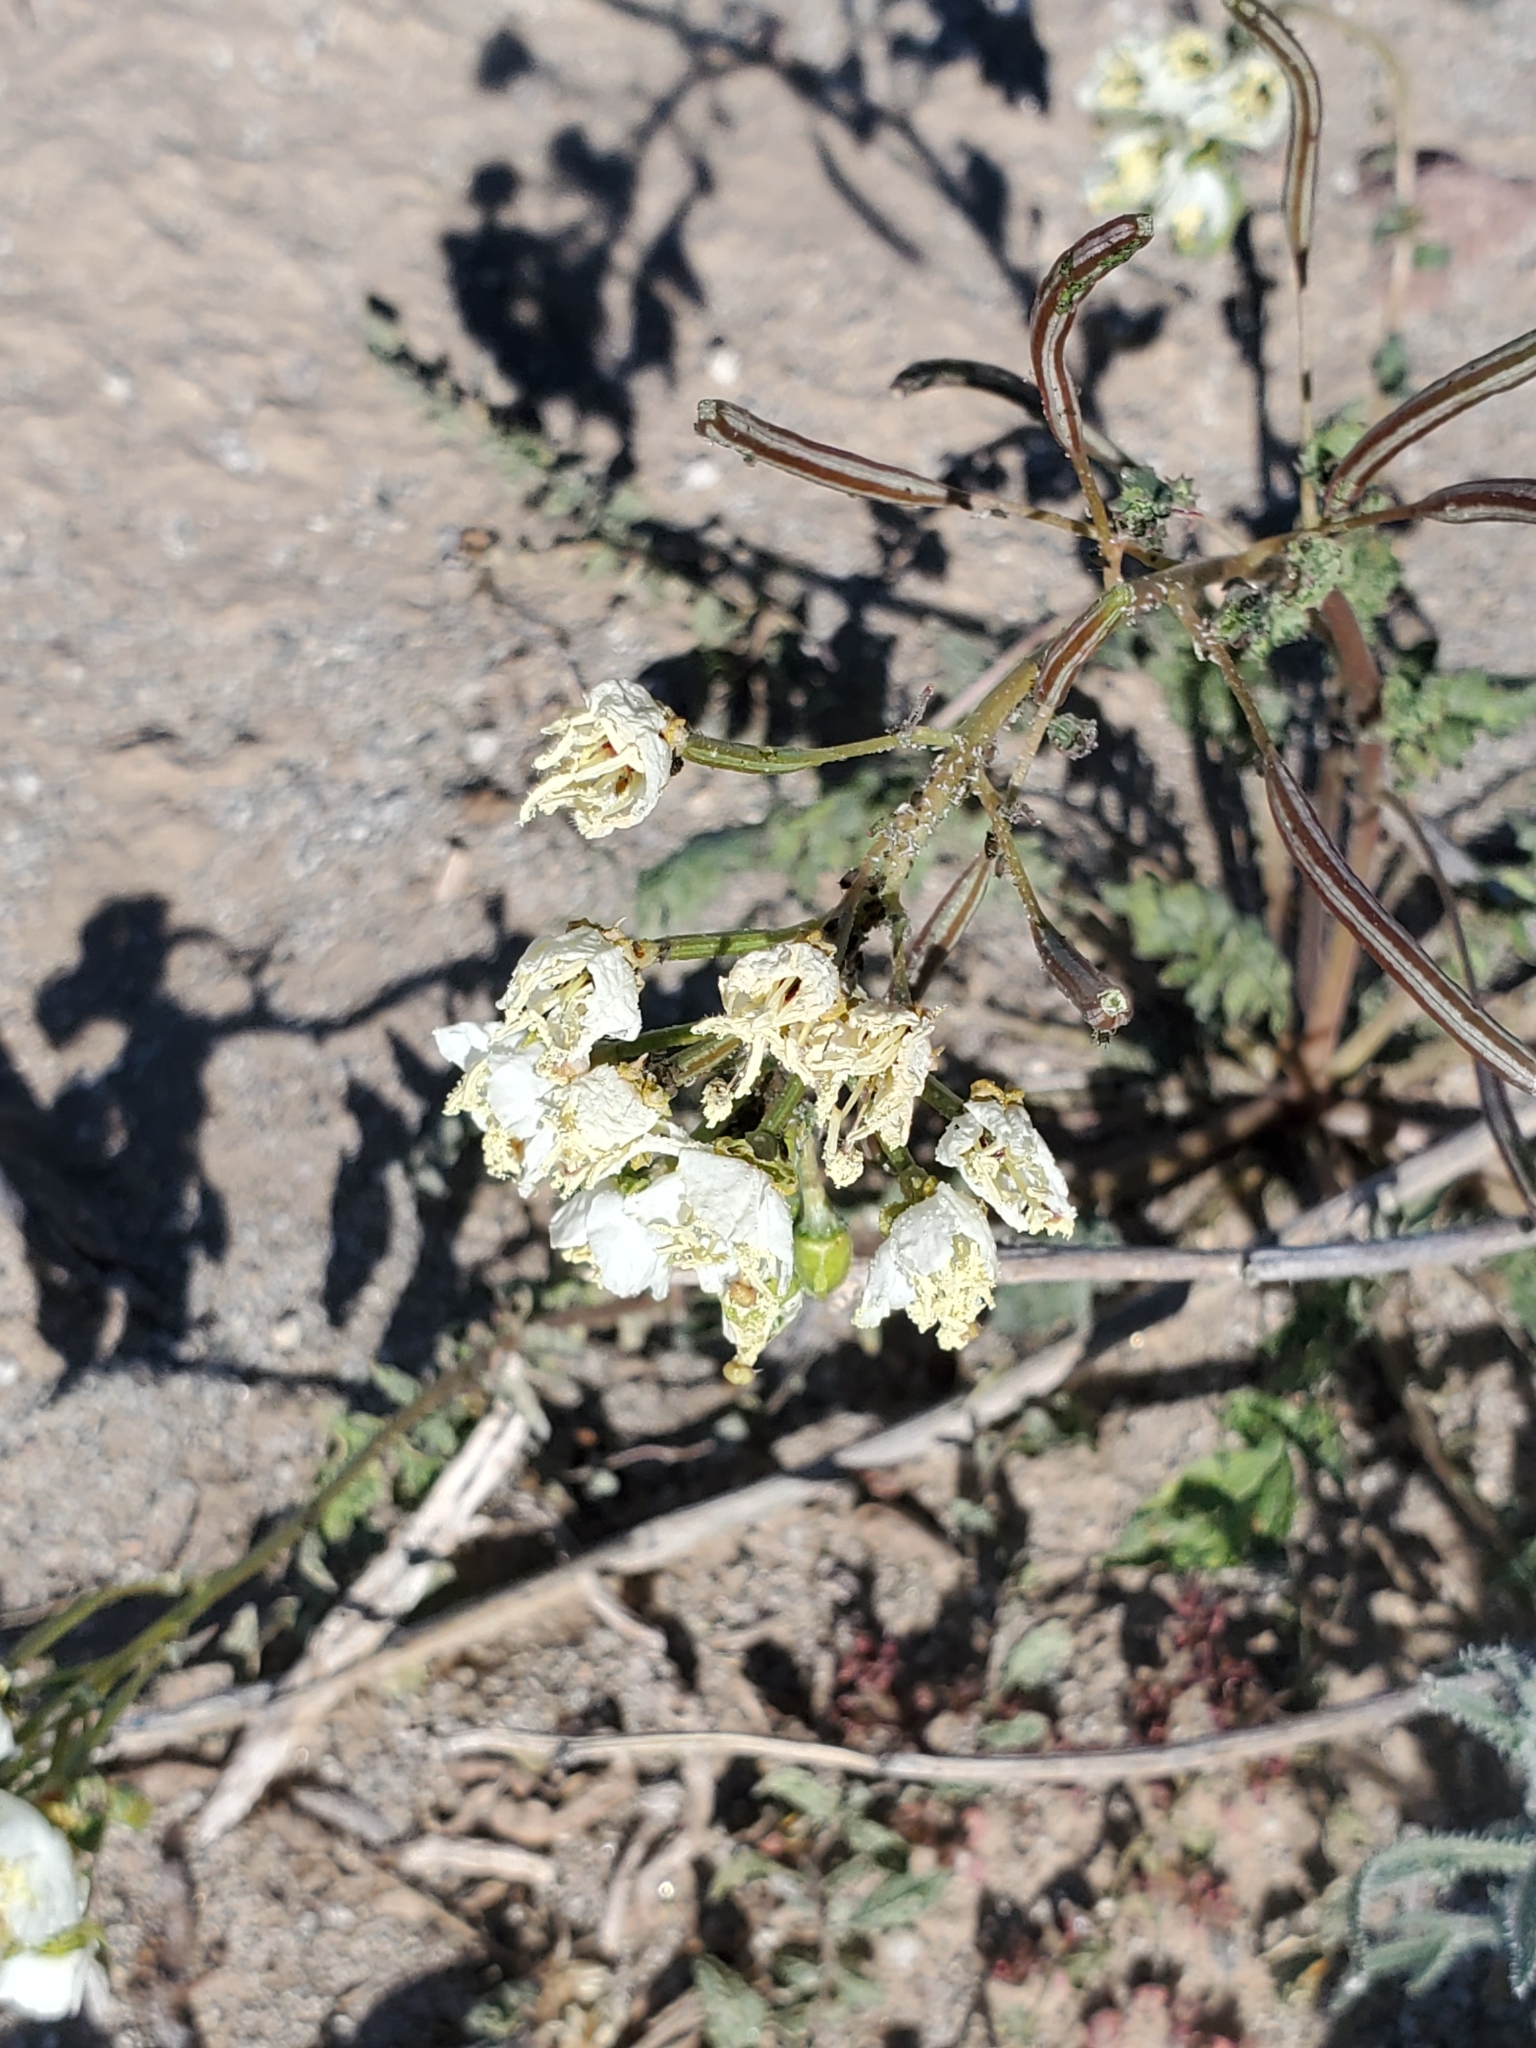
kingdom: Plantae
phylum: Tracheophyta
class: Magnoliopsida
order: Myrtales
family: Onagraceae
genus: Chylismia
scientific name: Chylismia claviformis
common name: Browneyes
